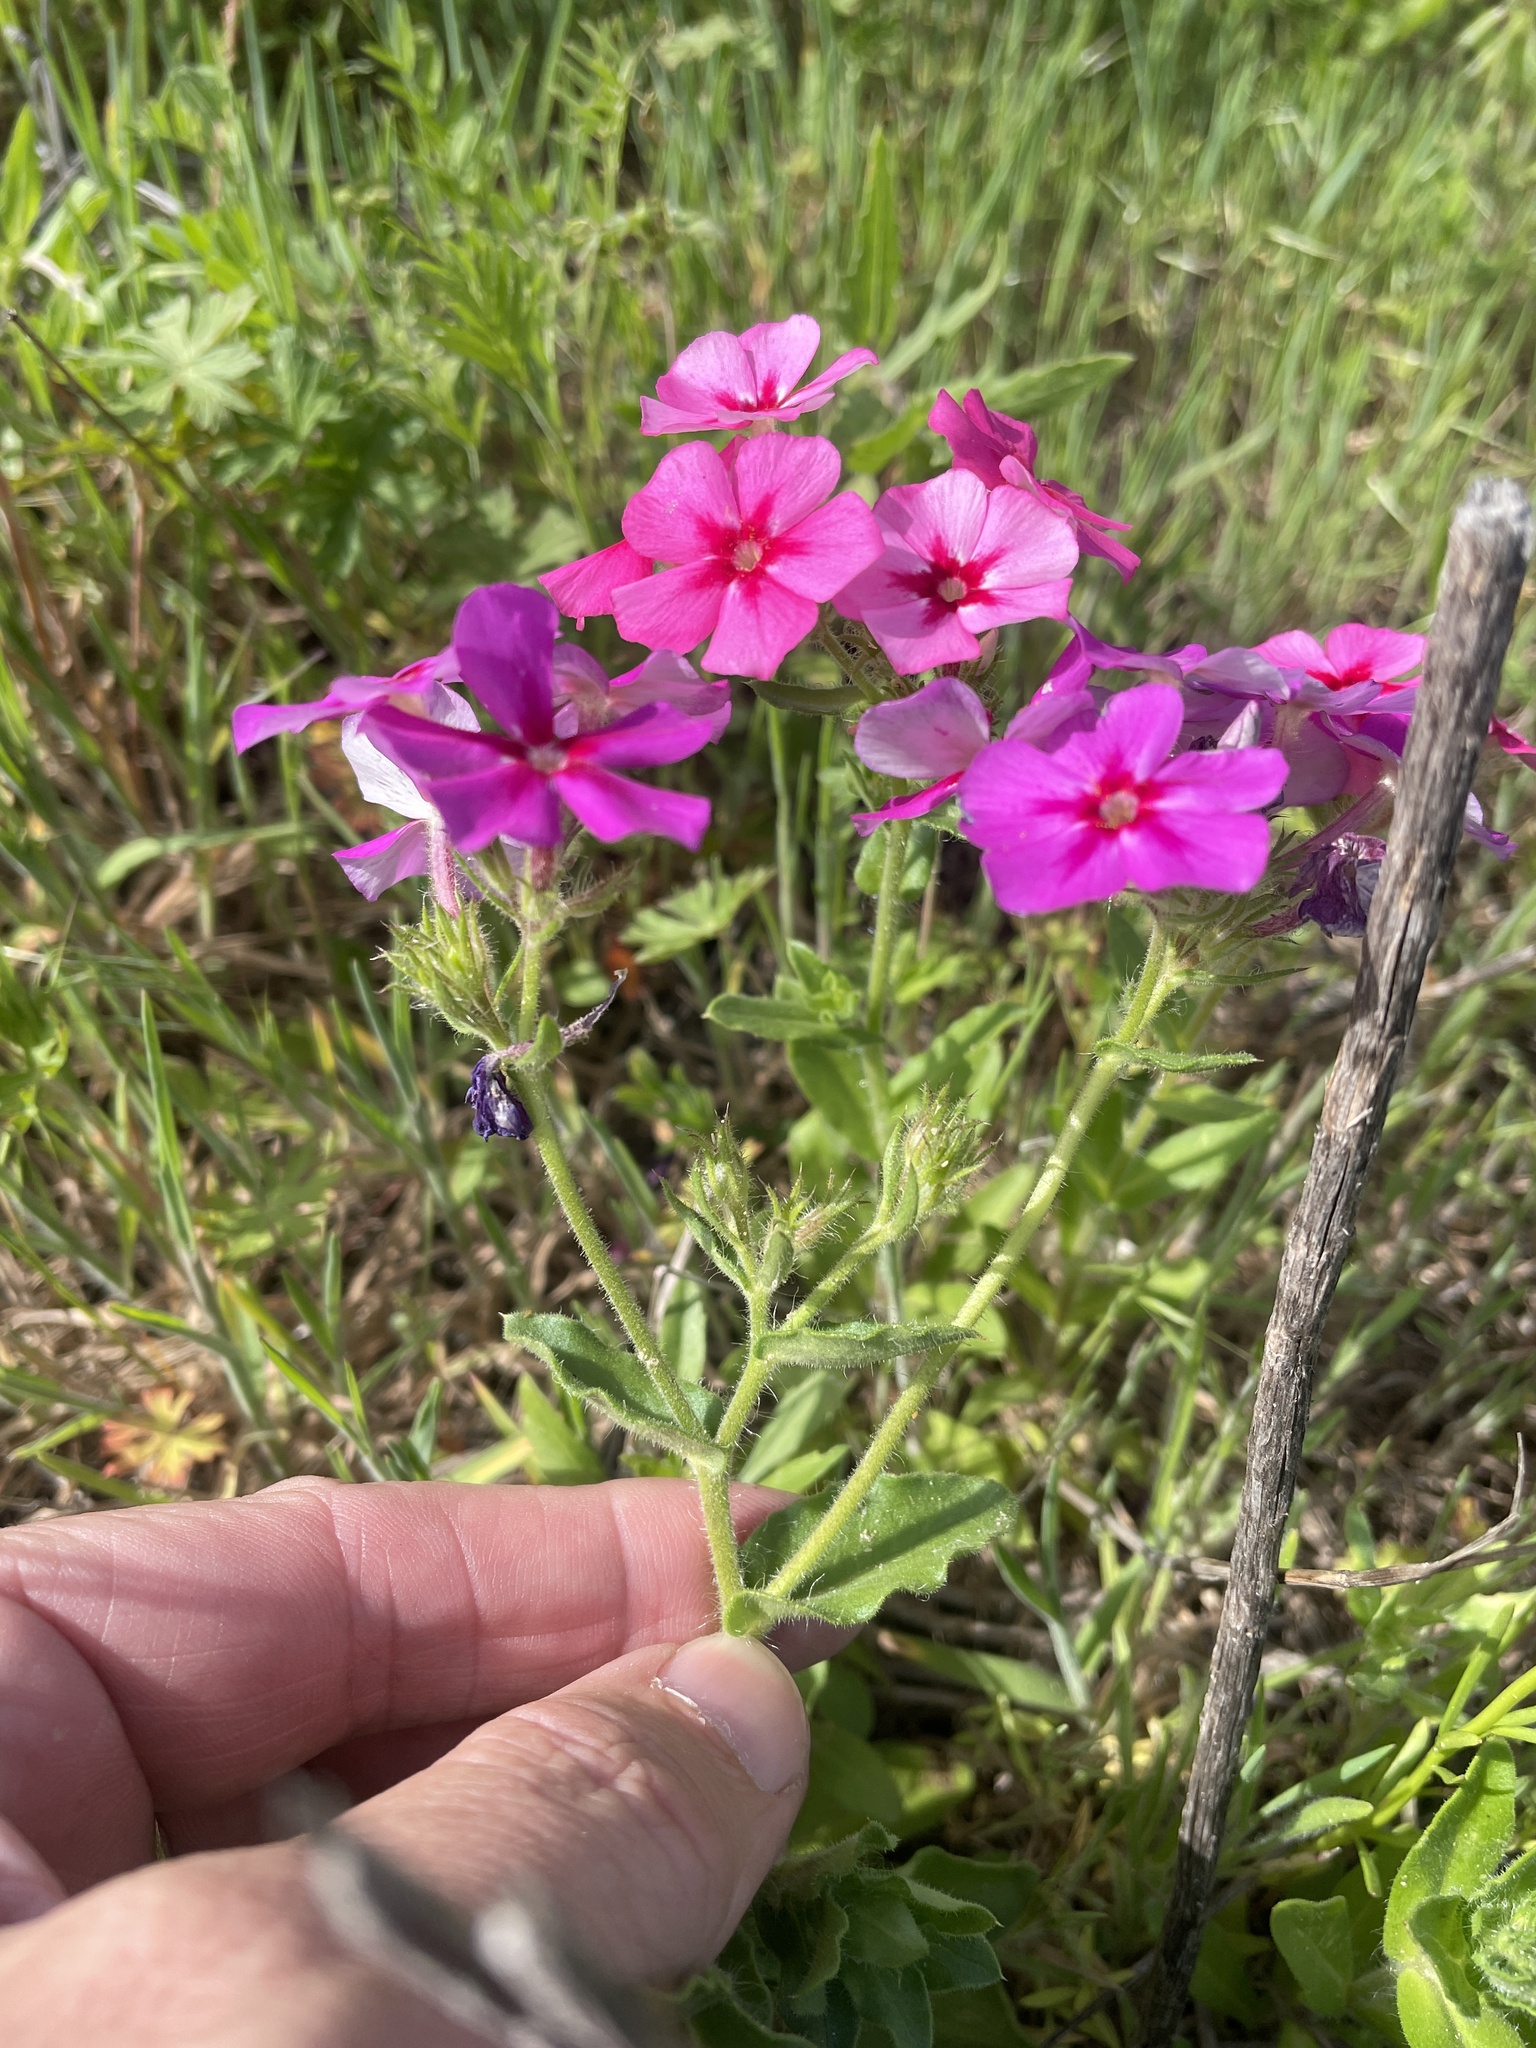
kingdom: Plantae
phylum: Tracheophyta
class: Magnoliopsida
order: Ericales
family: Polemoniaceae
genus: Phlox
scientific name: Phlox drummondii
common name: Drummond's phlox
